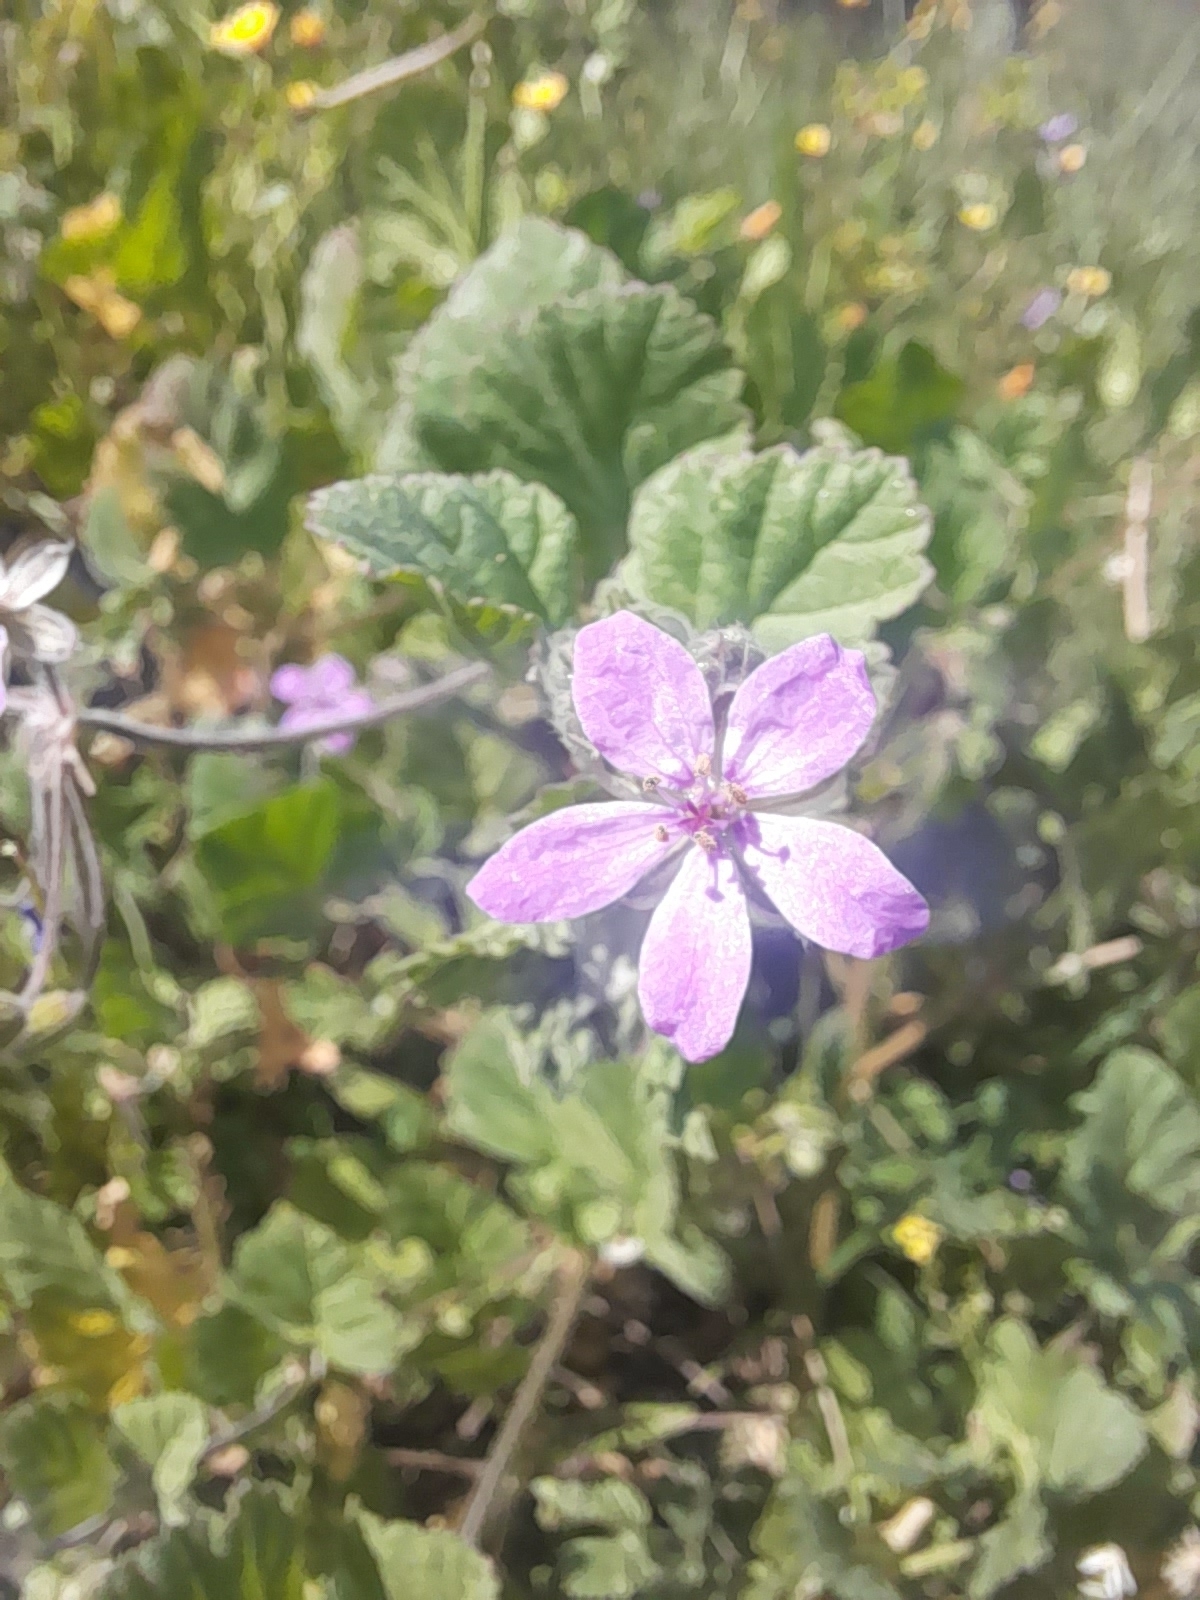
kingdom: Plantae
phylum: Tracheophyta
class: Magnoliopsida
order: Geraniales
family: Geraniaceae
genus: Erodium
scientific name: Erodium malacoides
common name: Soft stork's-bill
